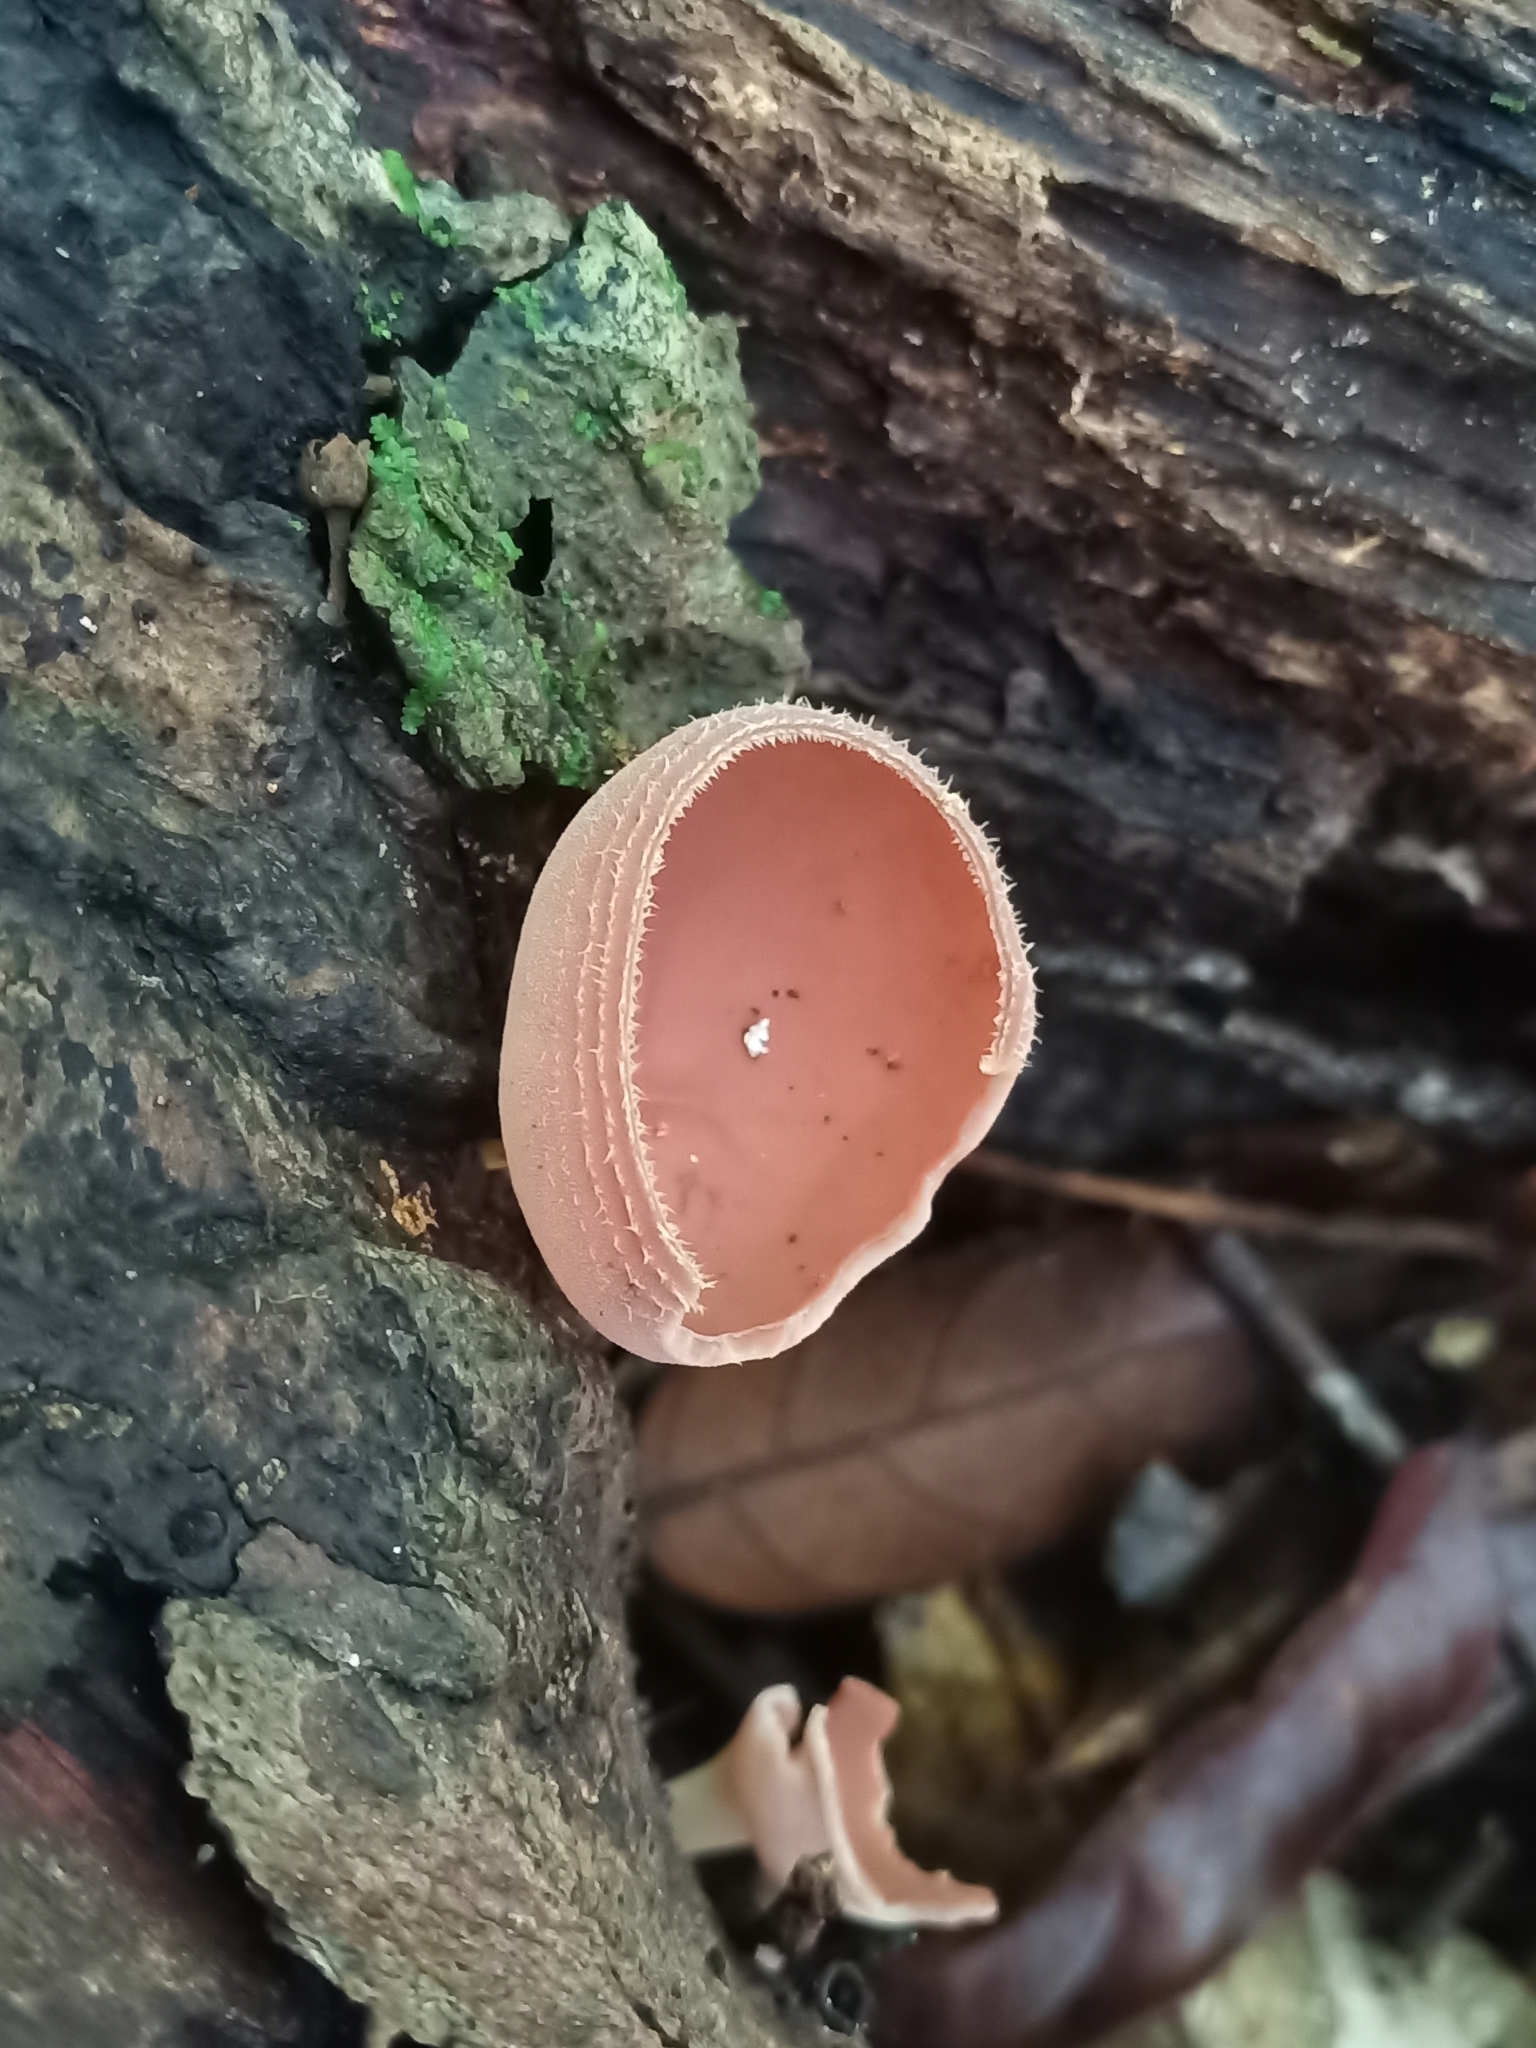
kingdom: Fungi
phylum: Ascomycota
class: Pezizomycetes
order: Pezizales
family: Sarcoscyphaceae
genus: Cookeina
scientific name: Cookeina speciosa
